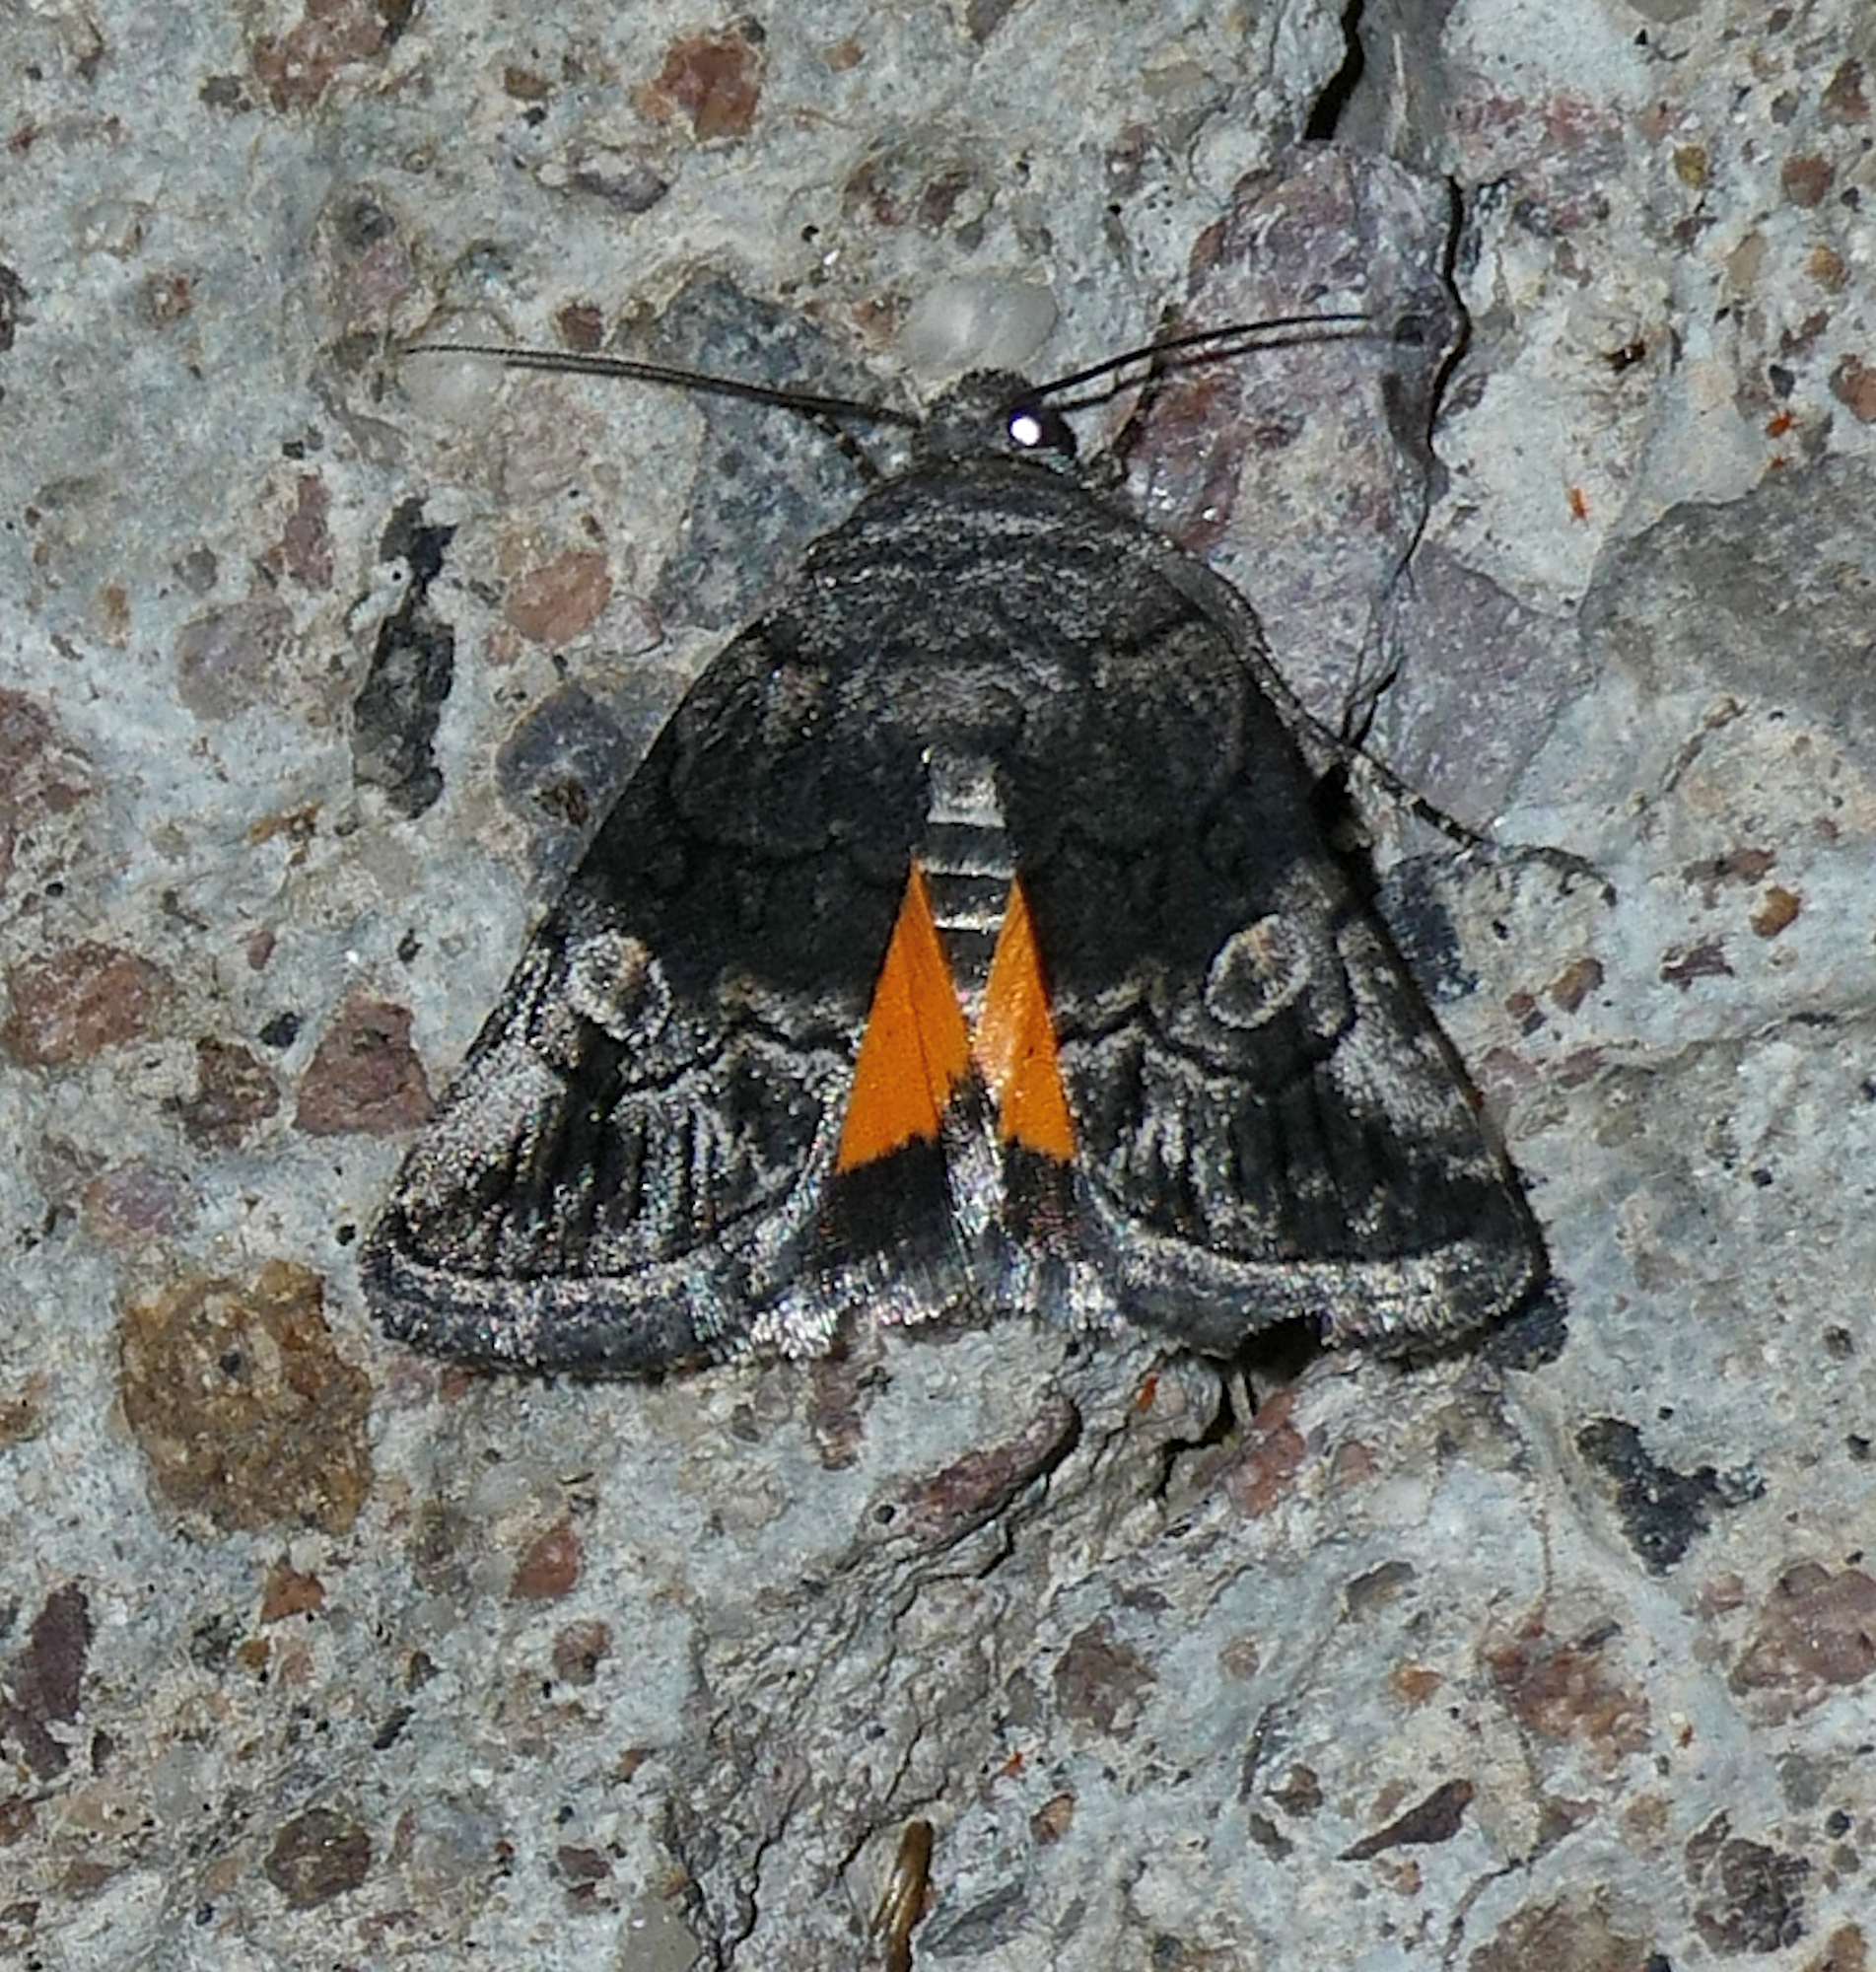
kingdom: Animalia
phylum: Arthropoda
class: Insecta
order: Lepidoptera
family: Noctuidae
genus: Copanarta
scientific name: Copanarta aurea
